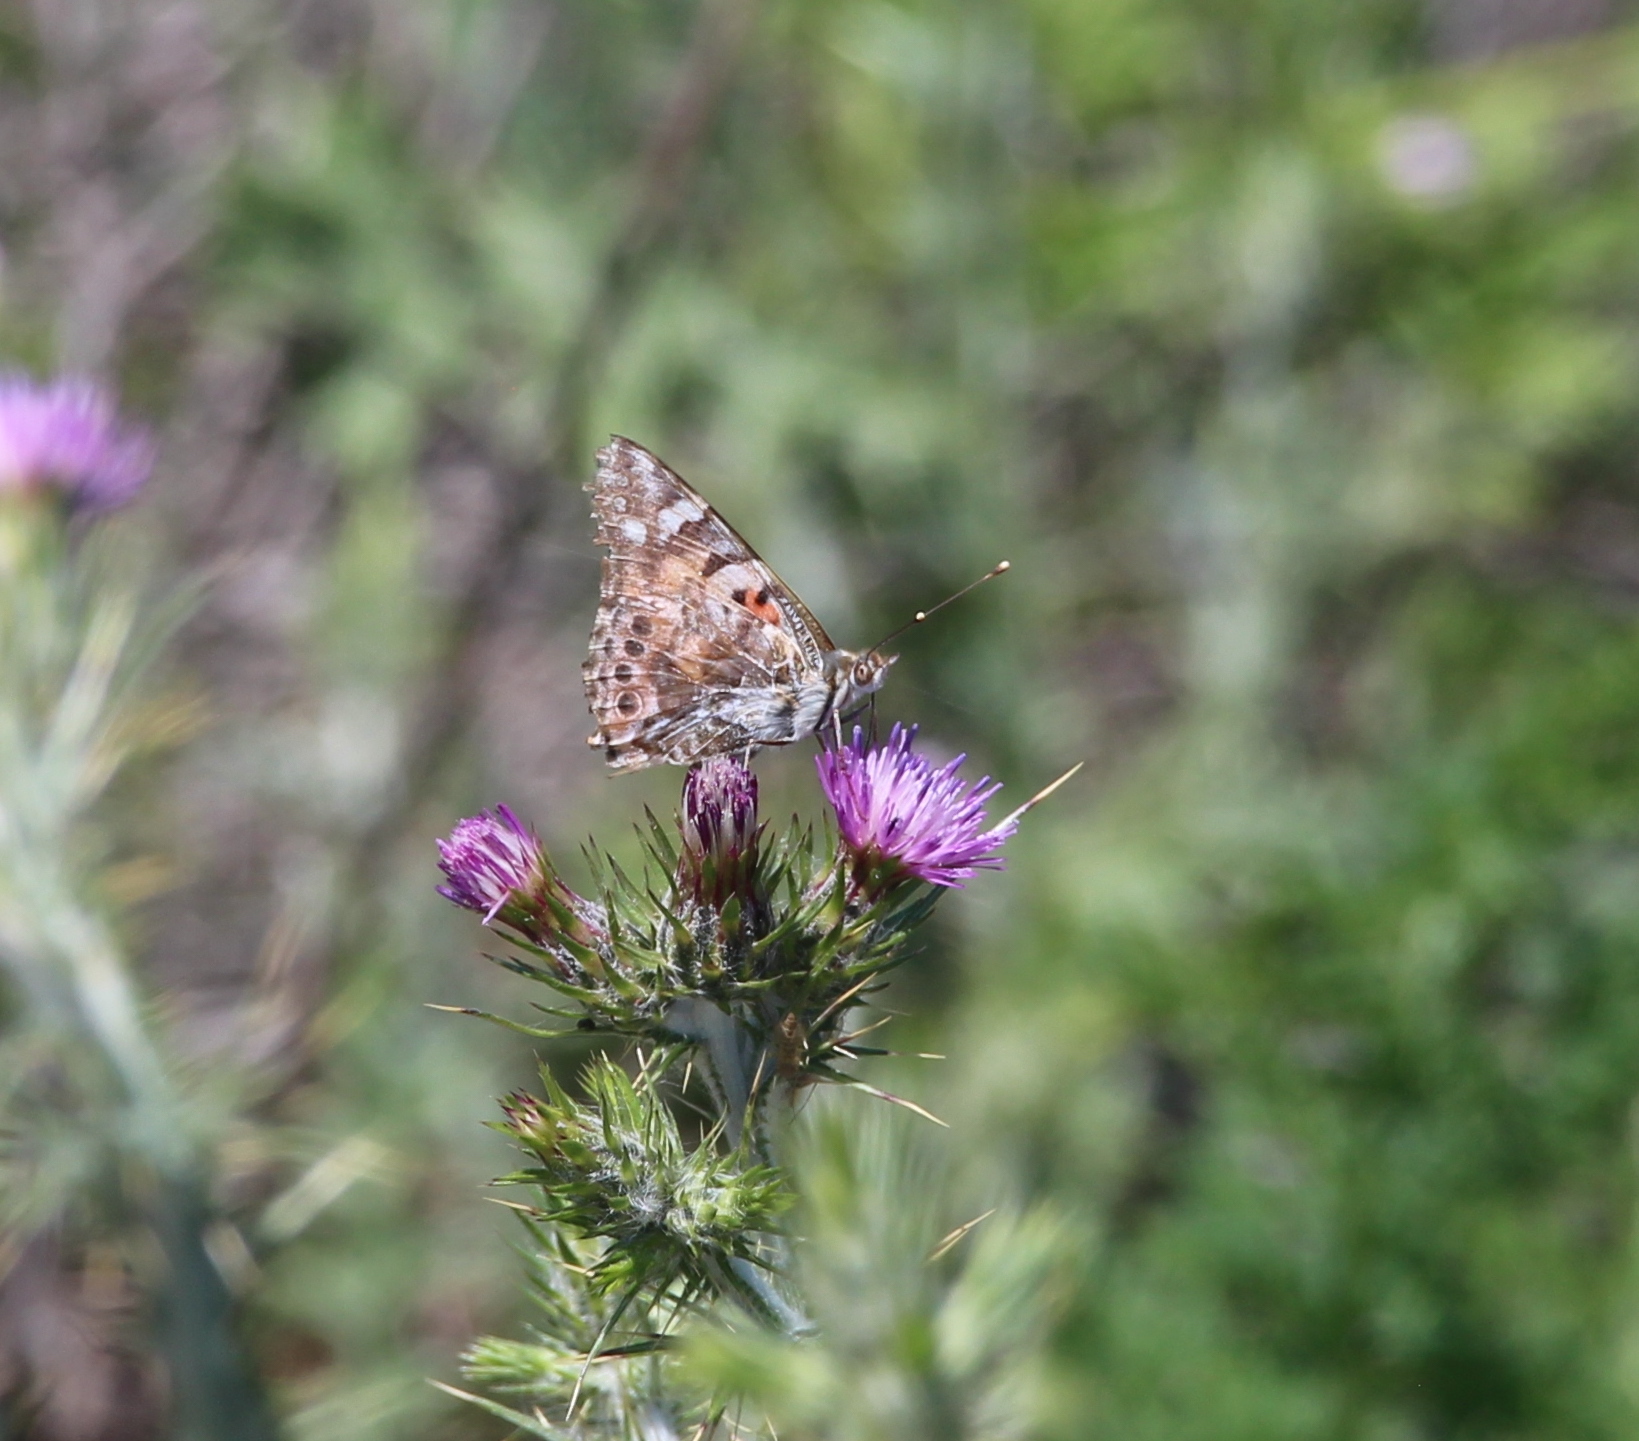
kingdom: Animalia
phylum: Arthropoda
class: Insecta
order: Lepidoptera
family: Nymphalidae
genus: Vanessa
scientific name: Vanessa cardui
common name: Painted lady
